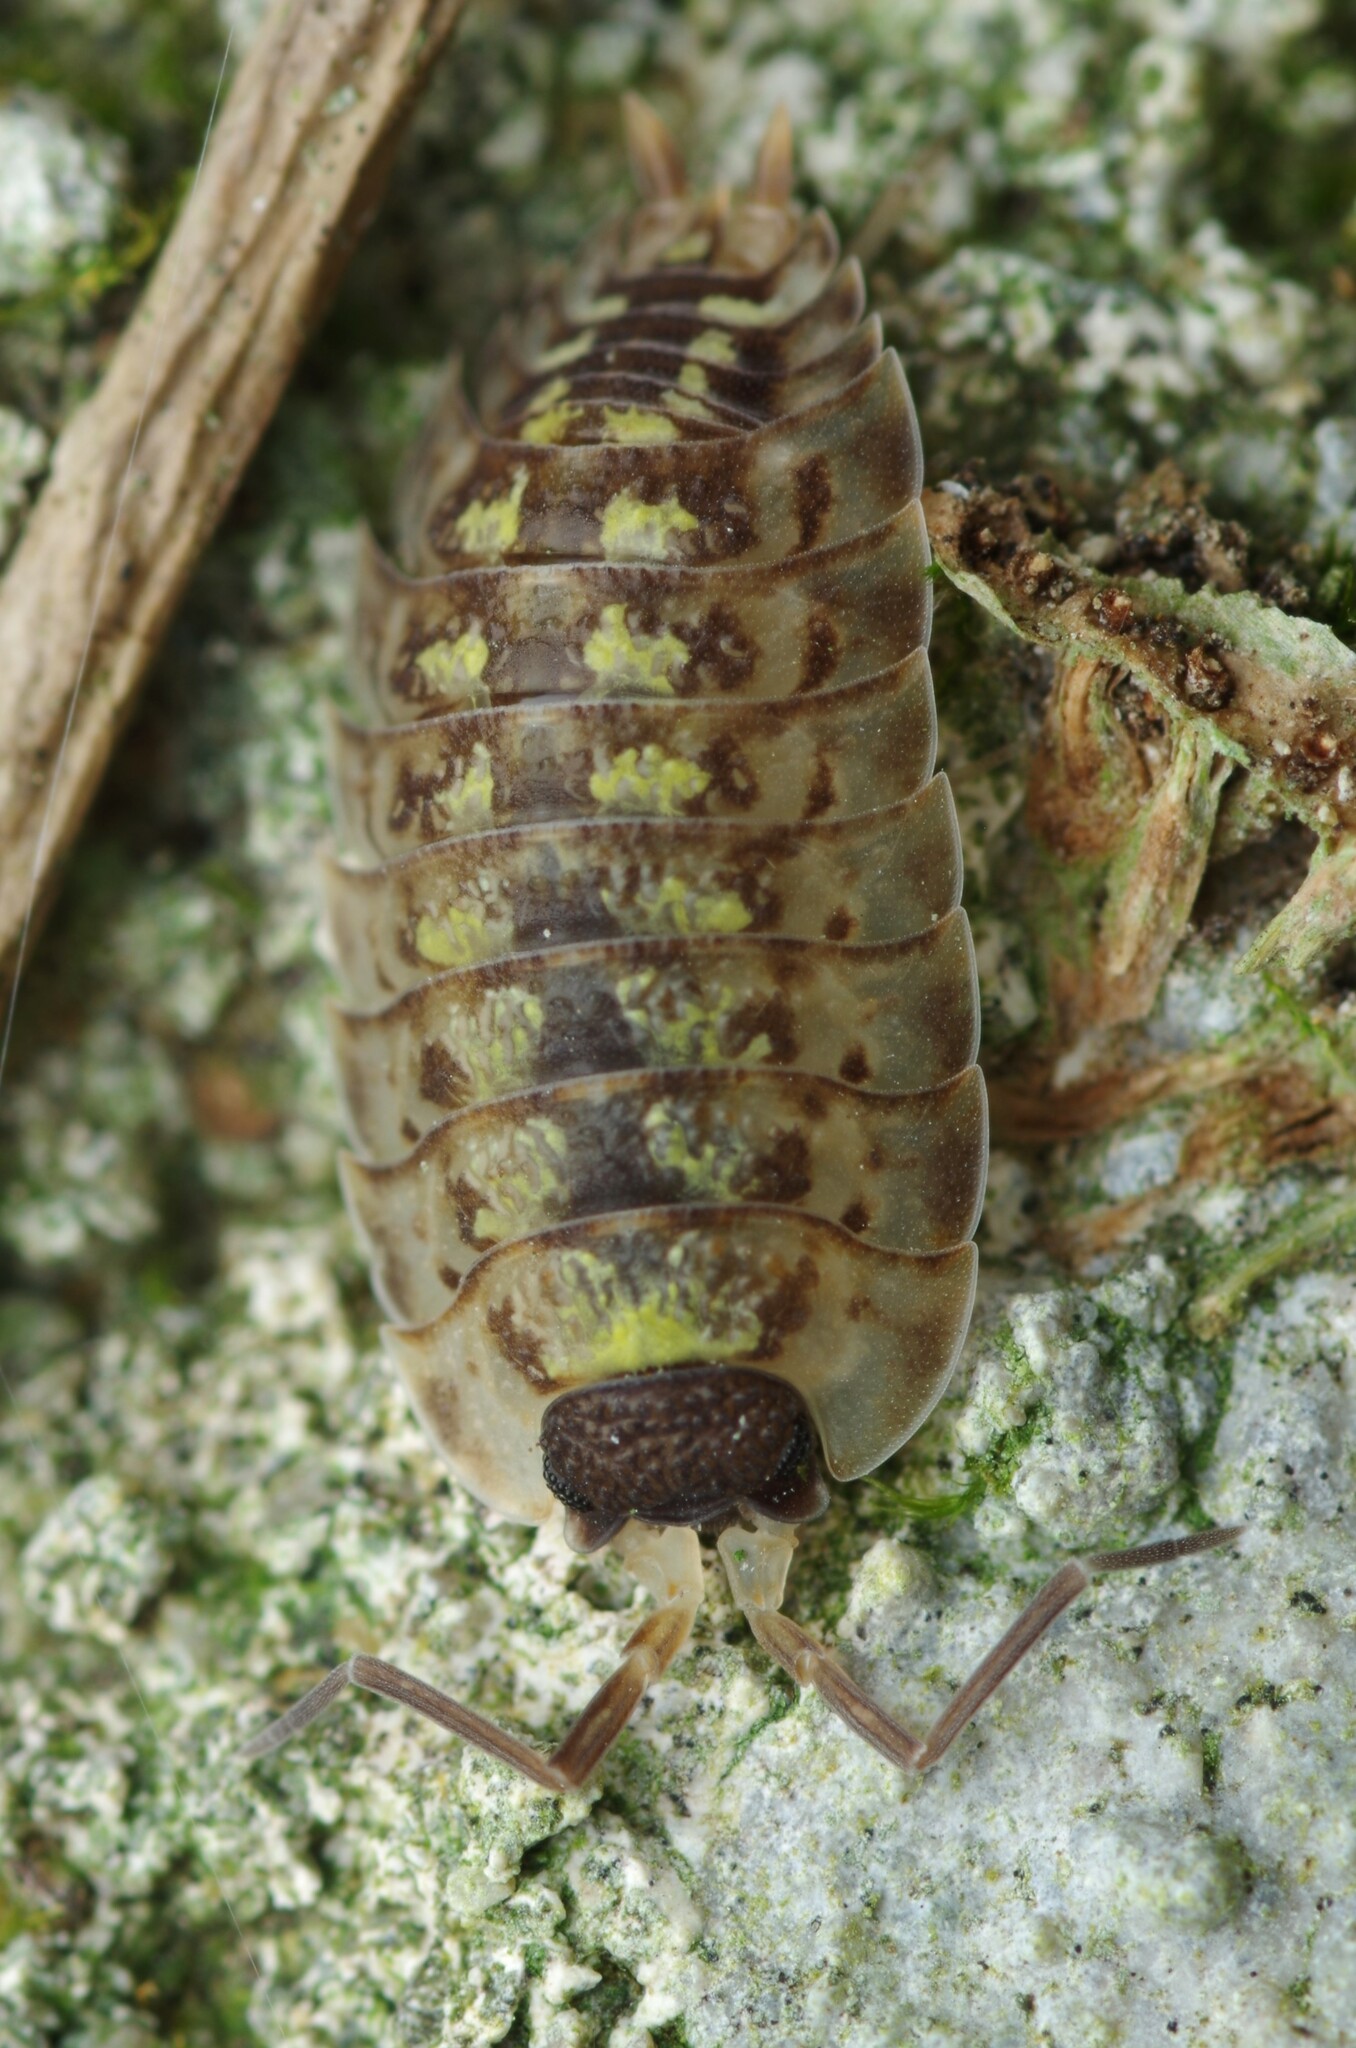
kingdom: Animalia
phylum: Arthropoda
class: Malacostraca
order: Isopoda
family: Porcellionidae
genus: Porcellio
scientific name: Porcellio spinicornis
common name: Painted woodlouse
